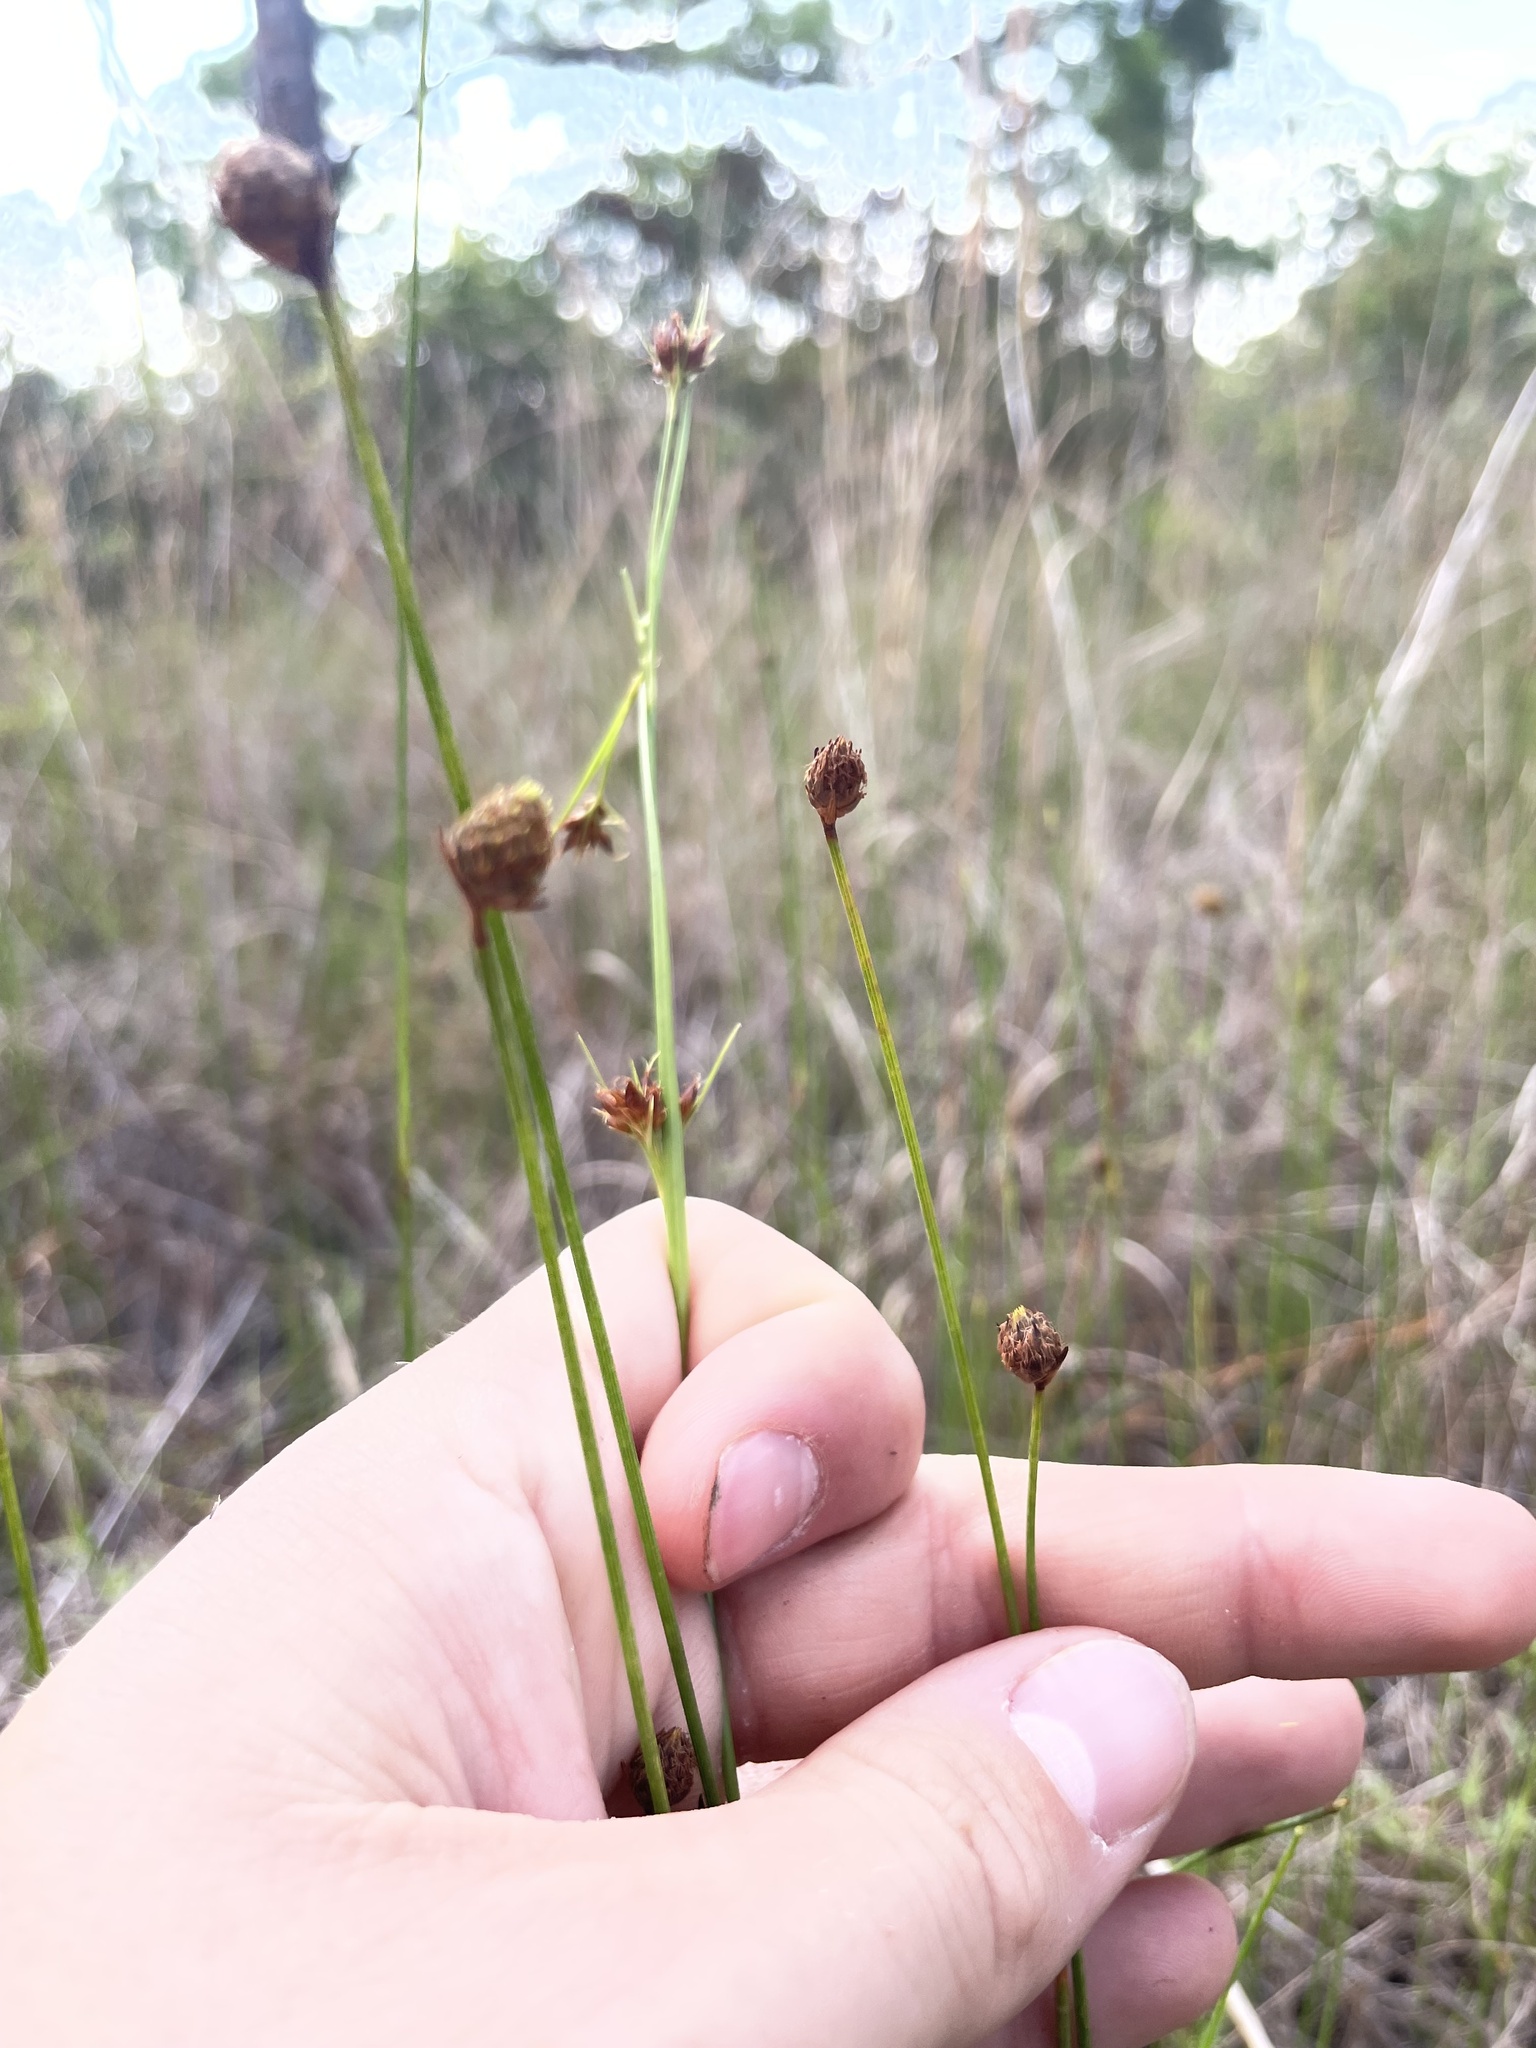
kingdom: Plantae
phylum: Tracheophyta
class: Liliopsida
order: Poales
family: Cyperaceae
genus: Fuirena
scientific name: Fuirena scirpoidea
